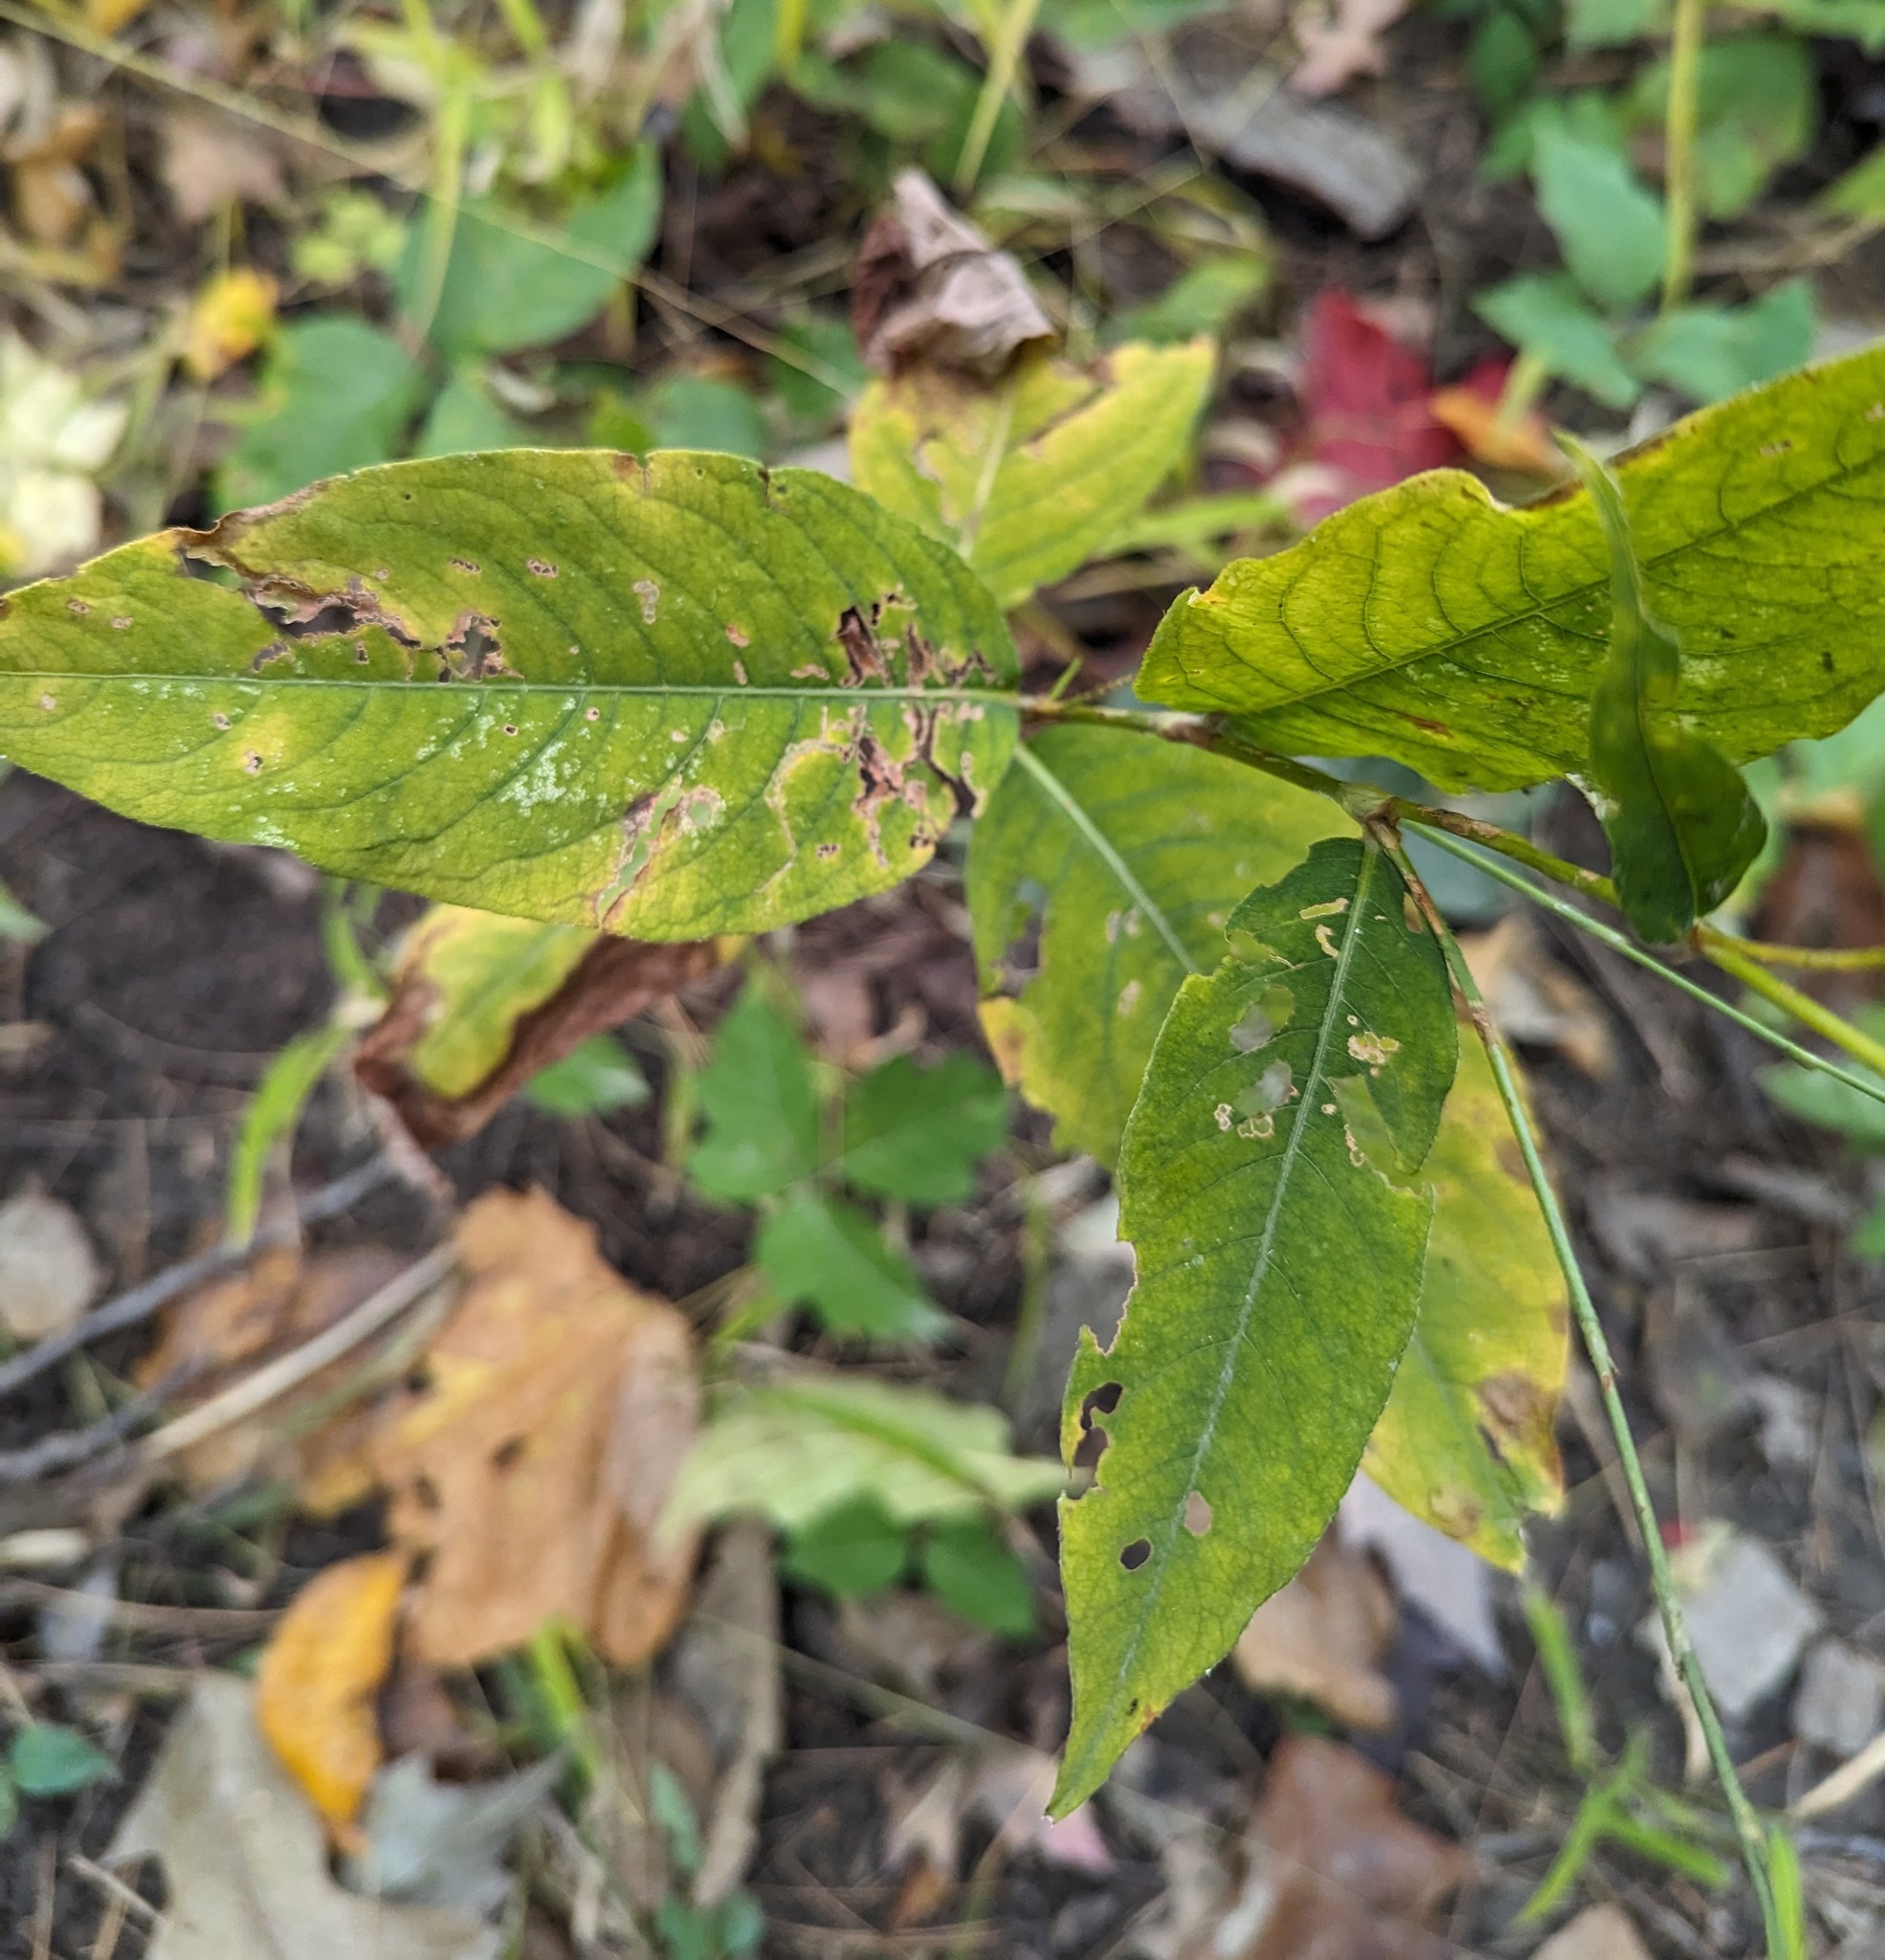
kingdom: Plantae
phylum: Tracheophyta
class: Magnoliopsida
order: Caryophyllales
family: Polygonaceae
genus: Persicaria
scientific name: Persicaria virginiana
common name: Jumpseed
